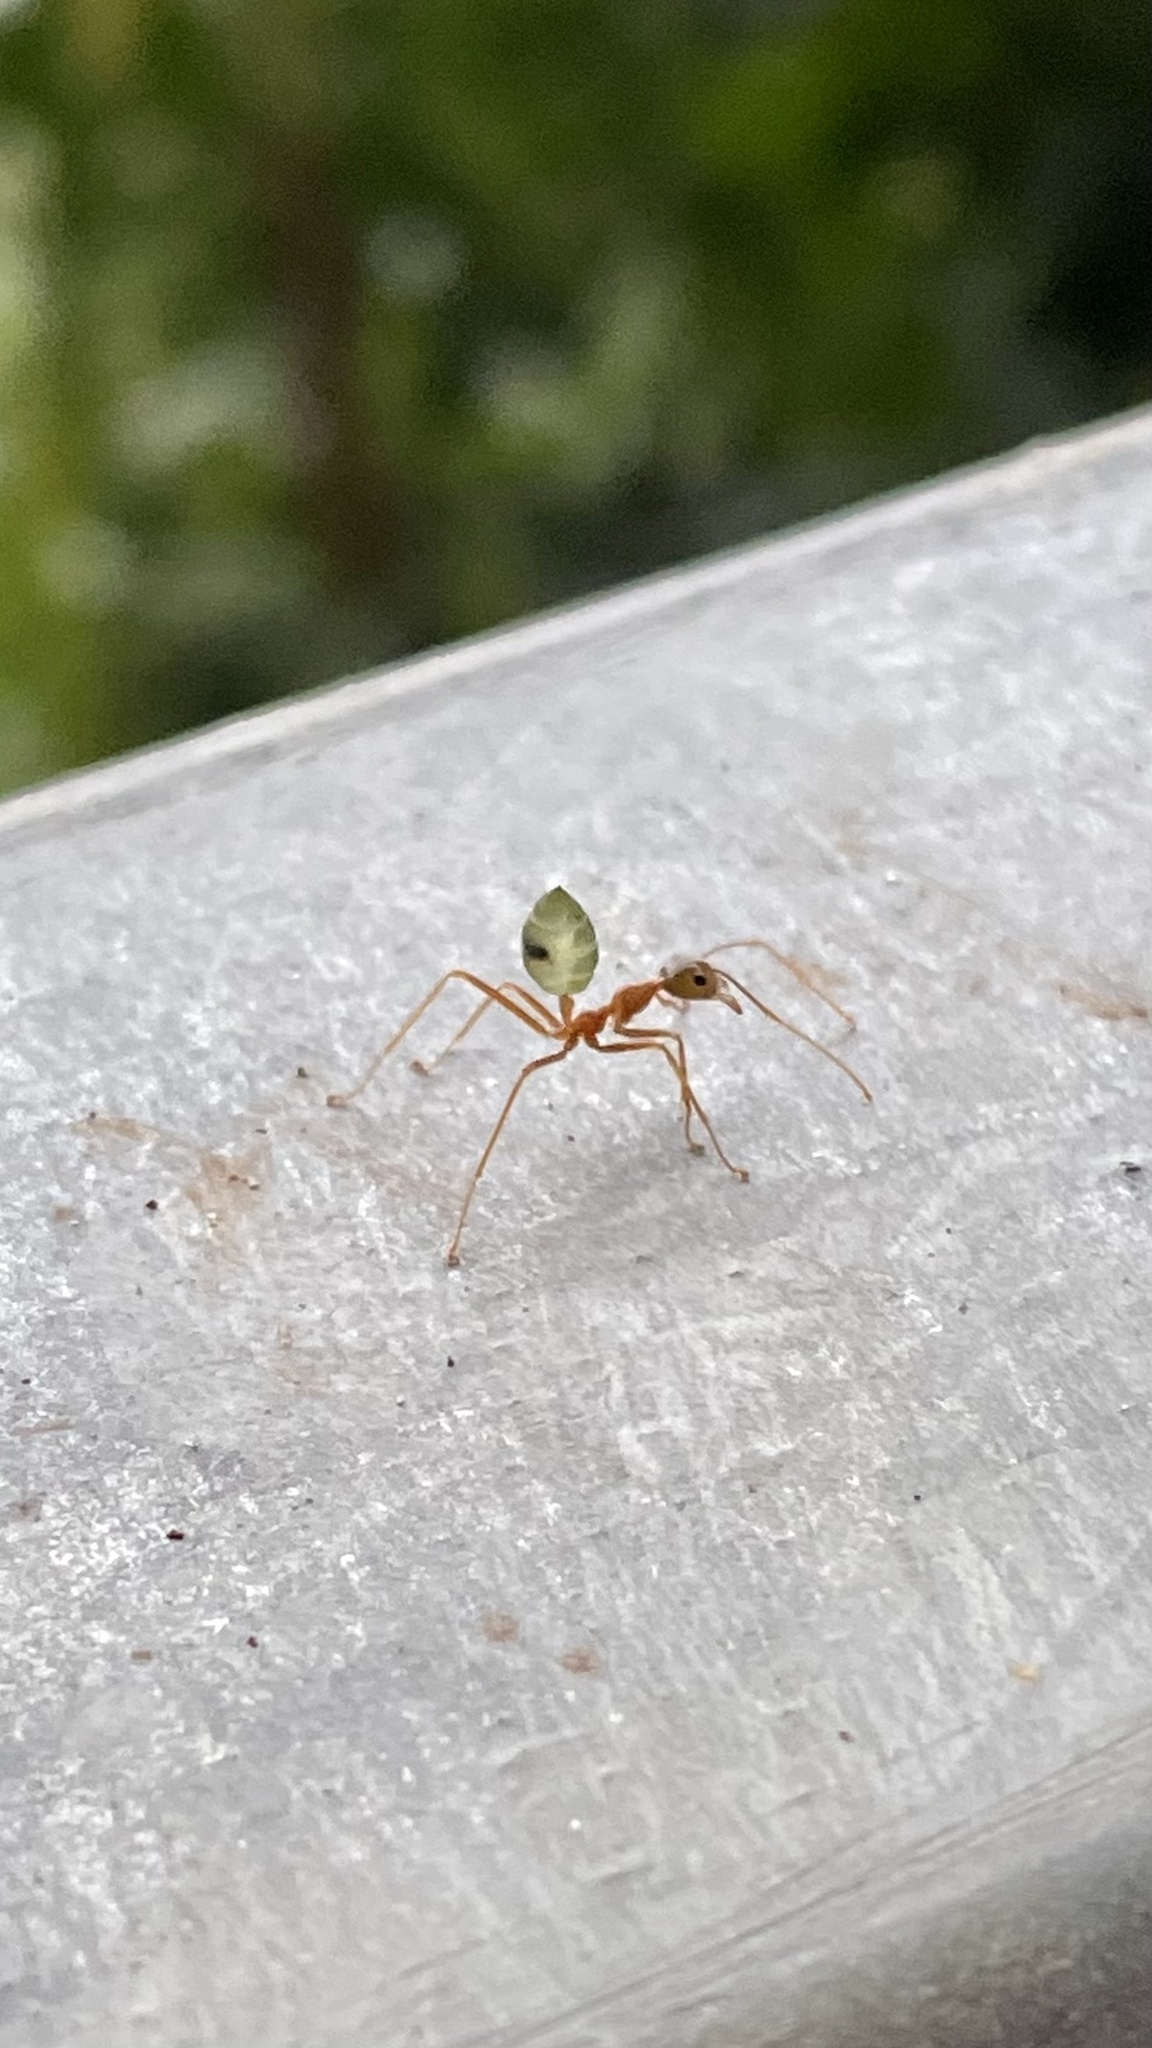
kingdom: Animalia
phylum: Arthropoda
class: Insecta
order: Hymenoptera
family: Formicidae
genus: Oecophylla
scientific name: Oecophylla smaragdina
